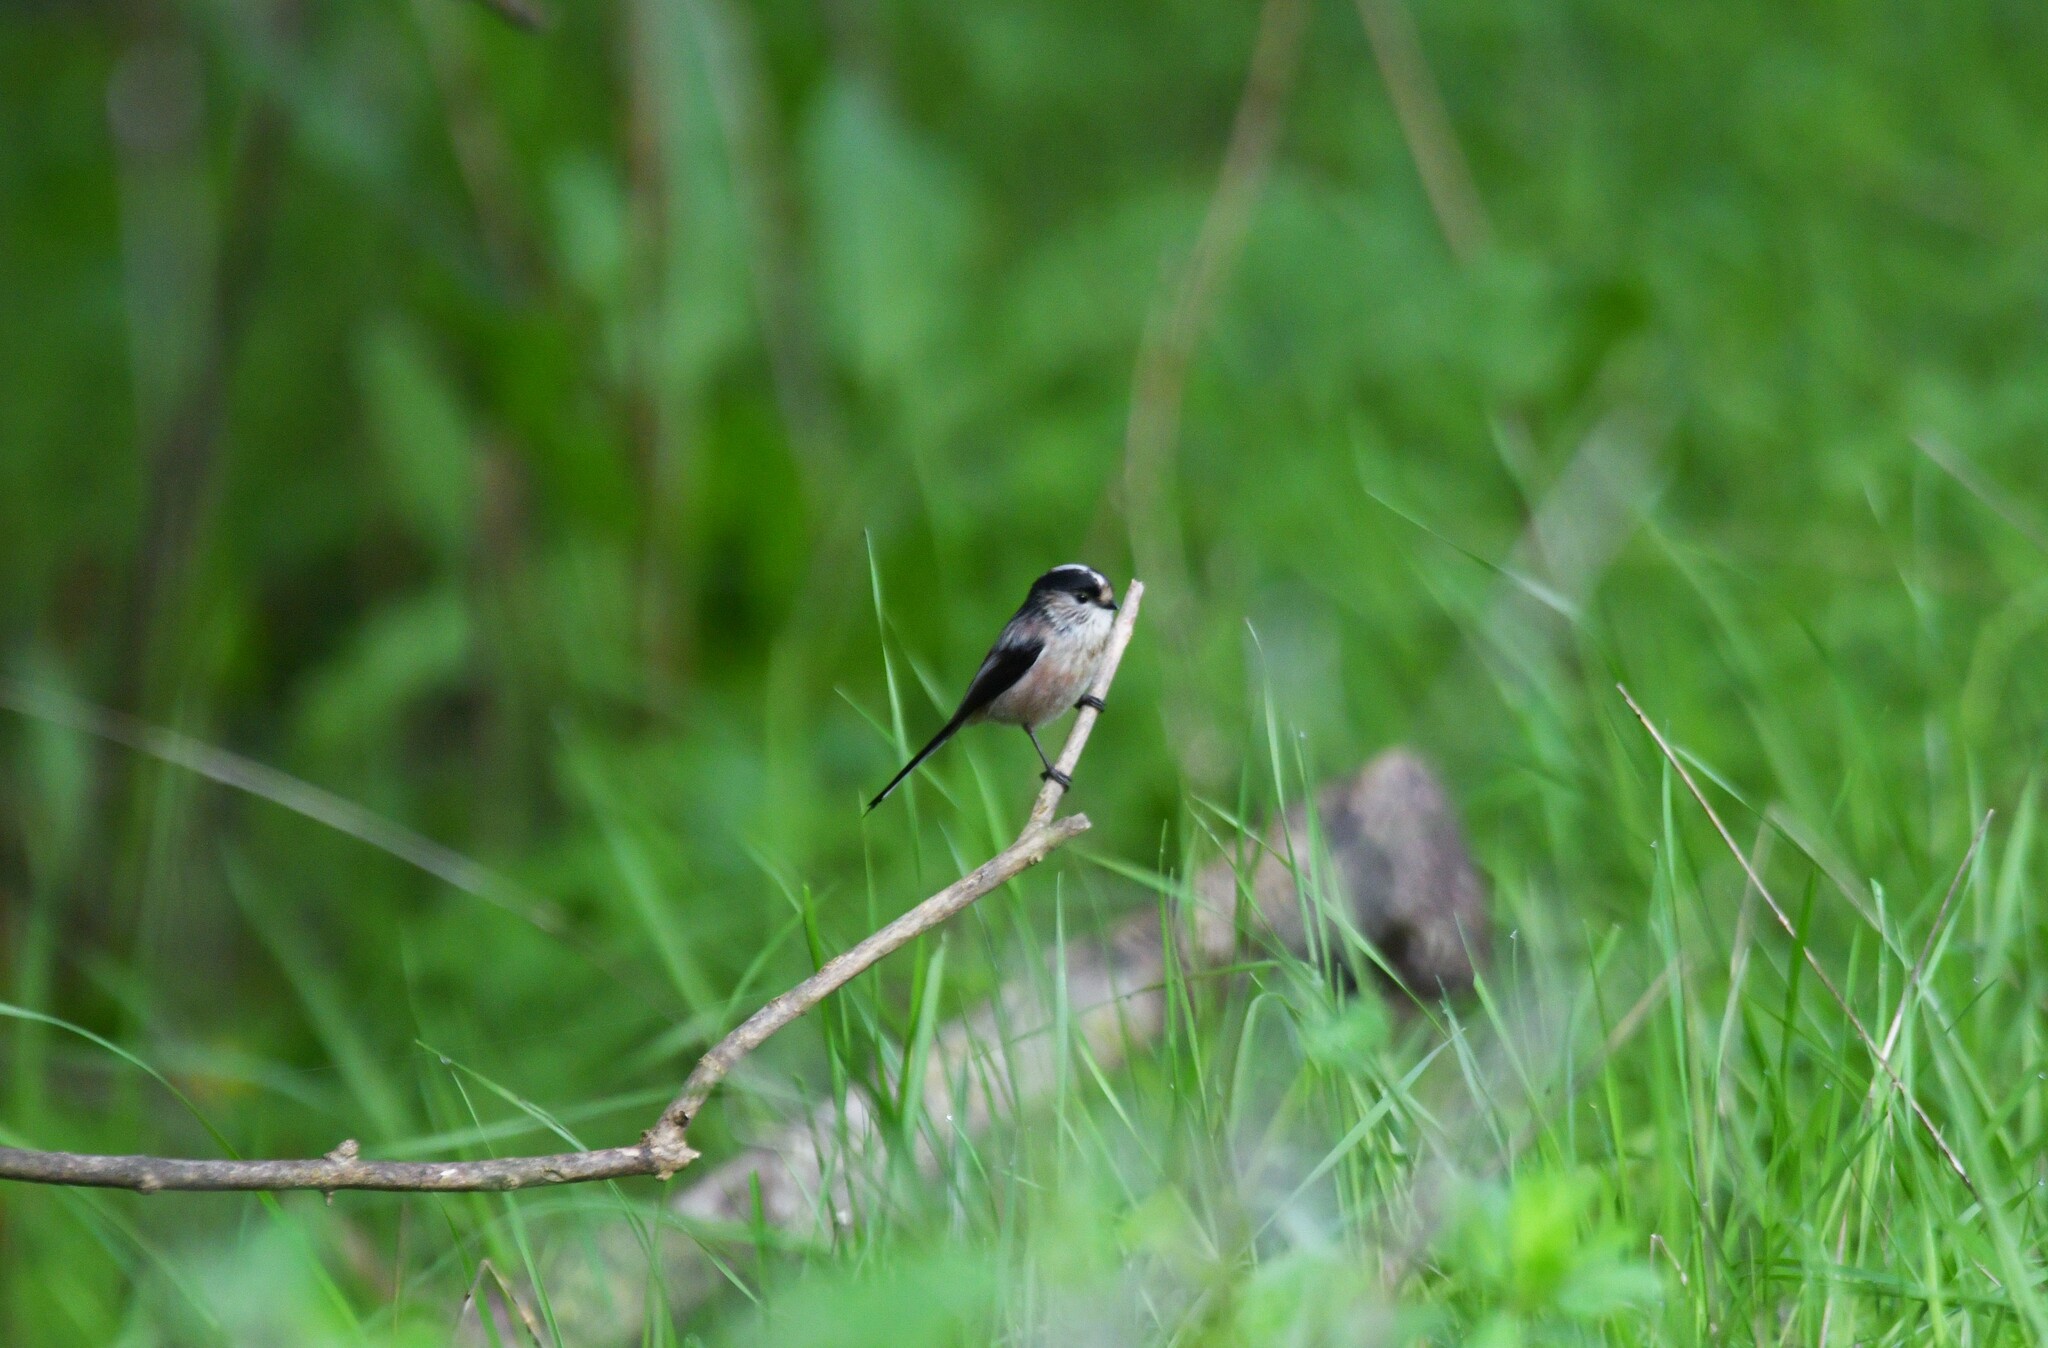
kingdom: Animalia
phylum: Chordata
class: Aves
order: Passeriformes
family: Aegithalidae
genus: Aegithalos
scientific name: Aegithalos caudatus
